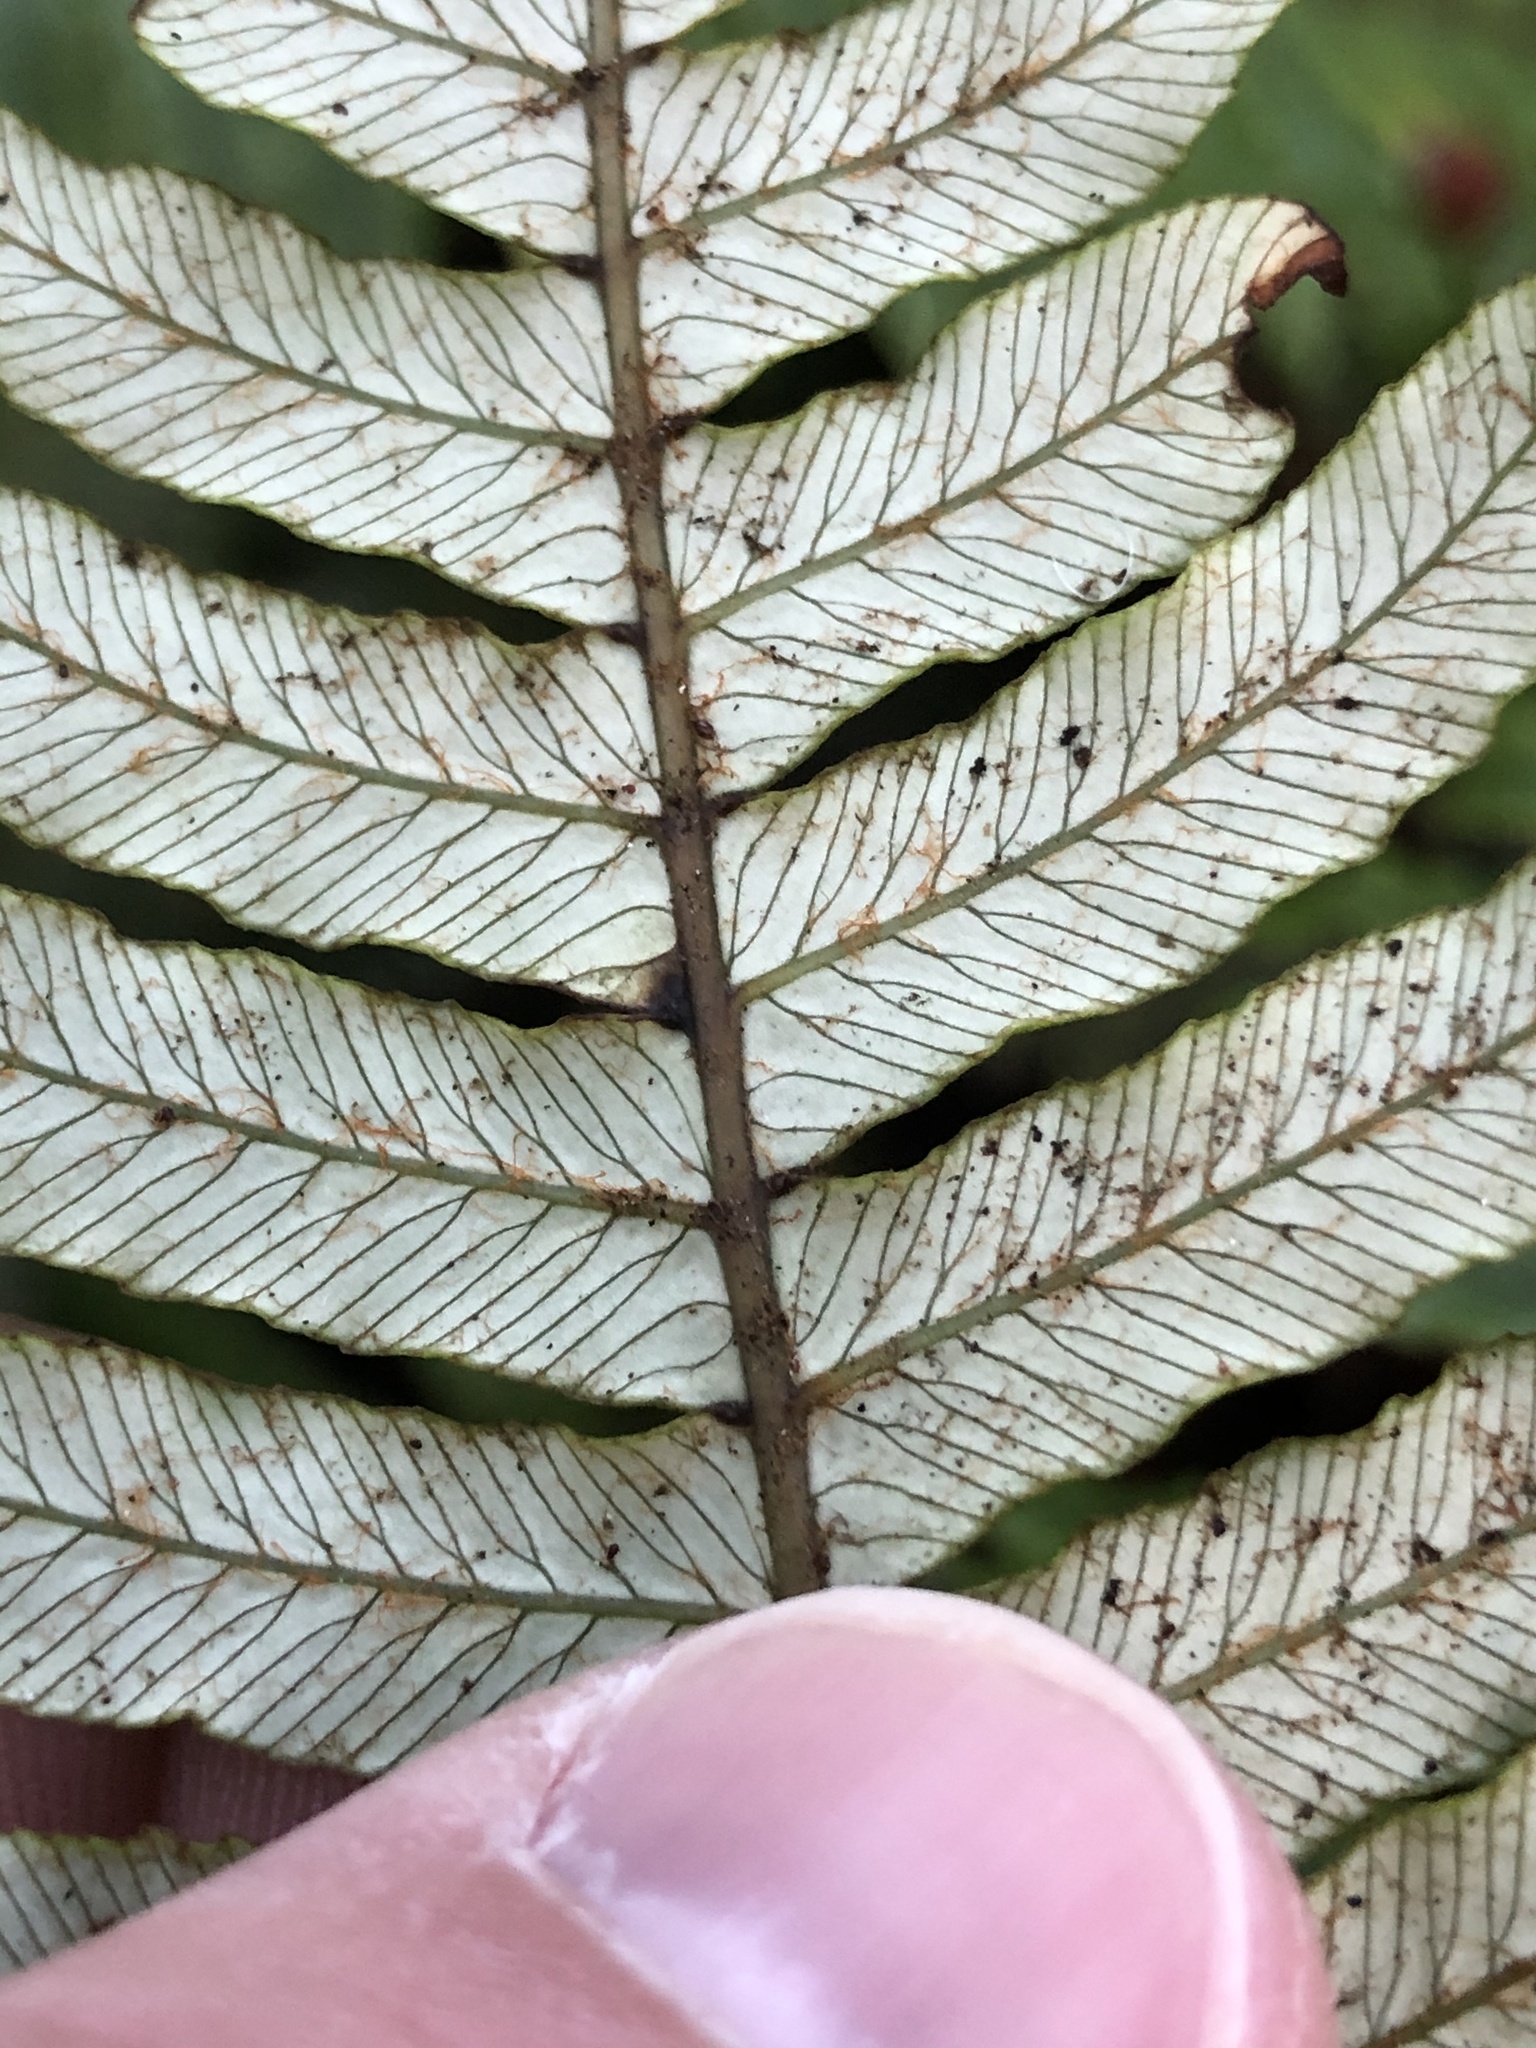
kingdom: Plantae
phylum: Tracheophyta
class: Polypodiopsida
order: Polypodiales
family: Blechnaceae
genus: Lomaria
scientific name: Lomaria discolor
